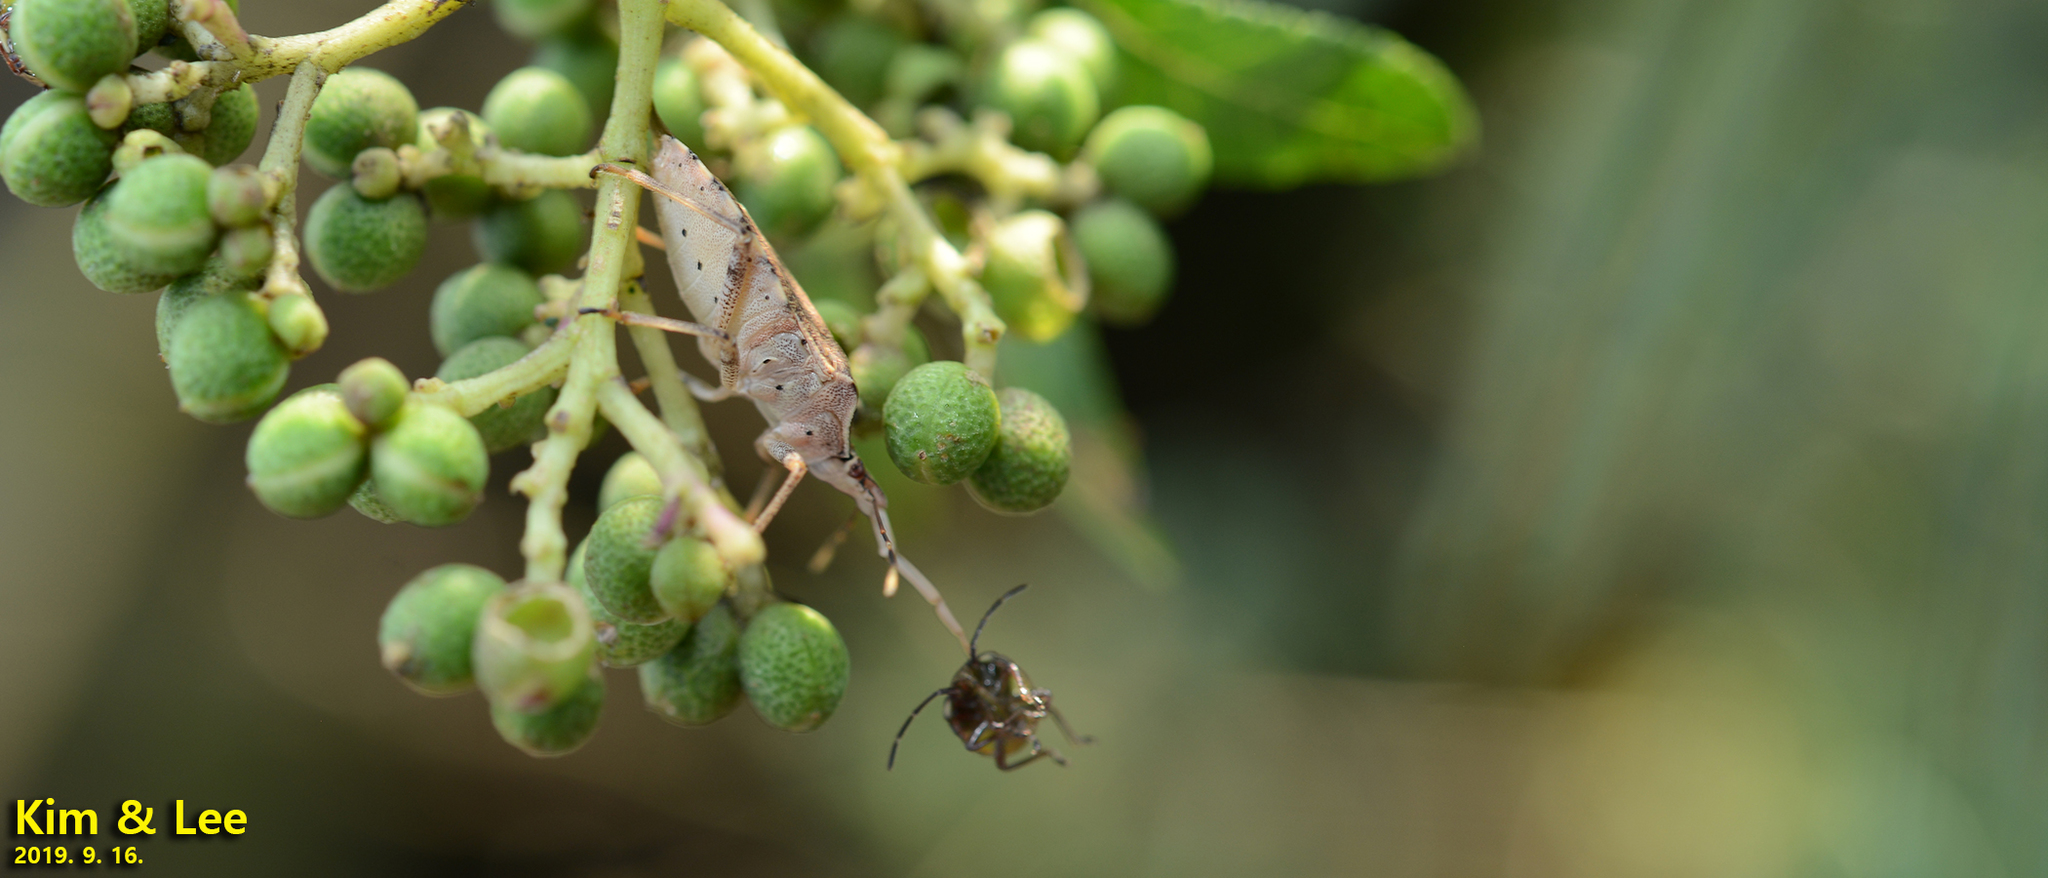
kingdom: Animalia
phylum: Arthropoda
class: Insecta
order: Hemiptera
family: Pentatomidae
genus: Arma
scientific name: Arma custos
